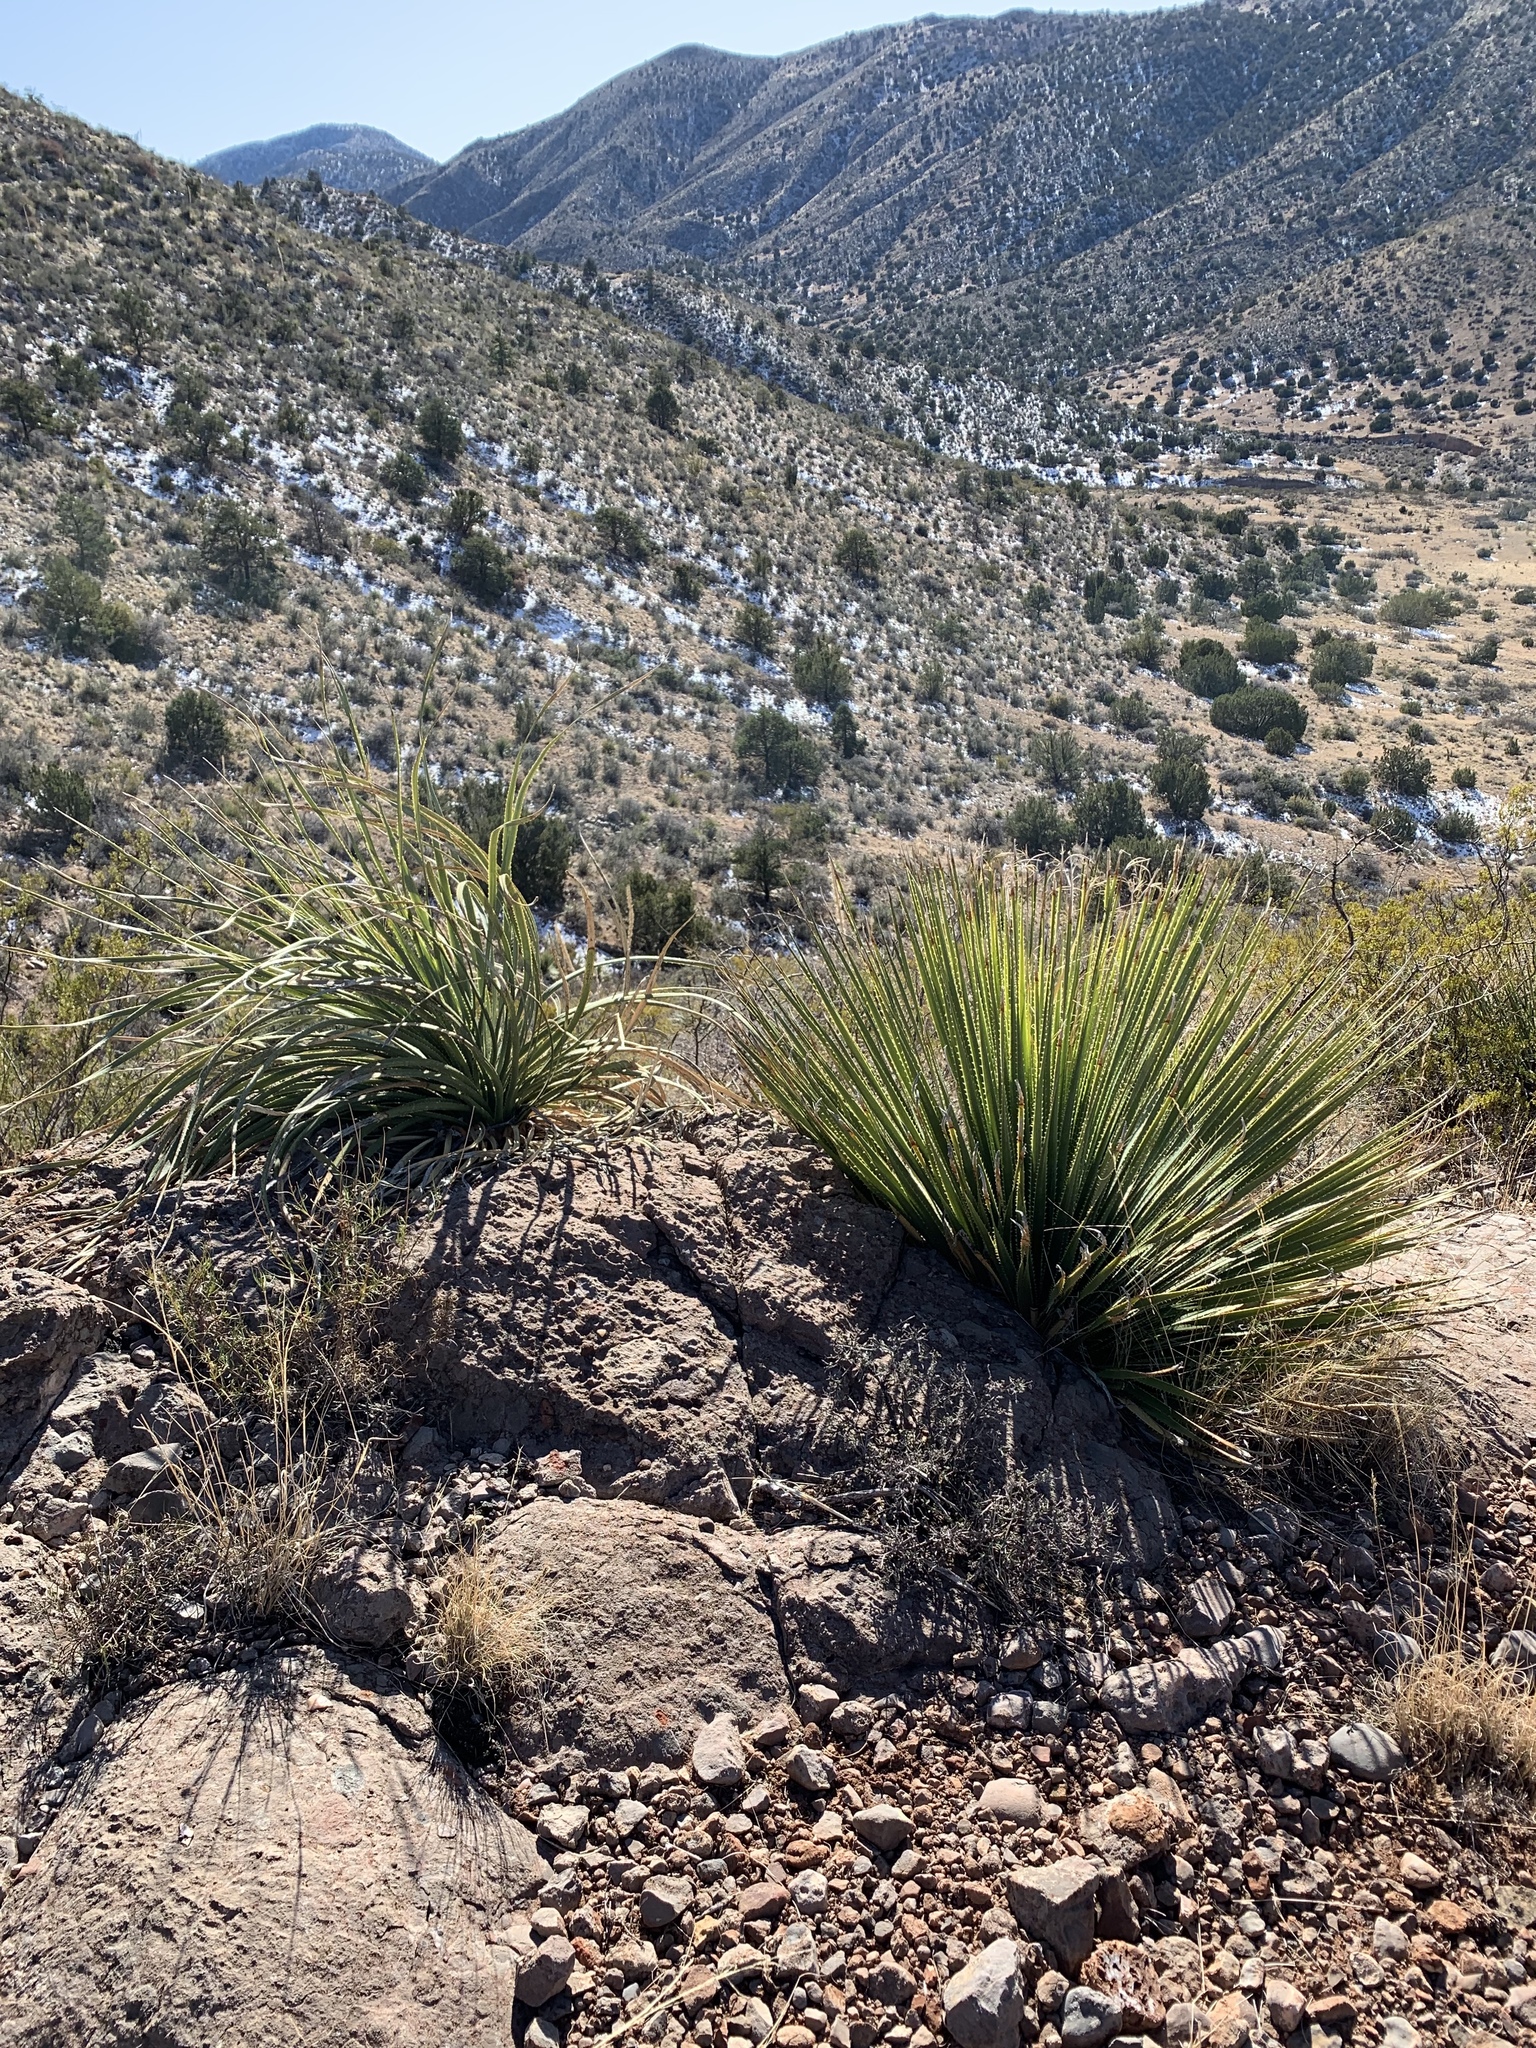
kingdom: Plantae
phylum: Tracheophyta
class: Liliopsida
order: Asparagales
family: Asparagaceae
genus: Dasylirion
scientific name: Dasylirion wheeleri
